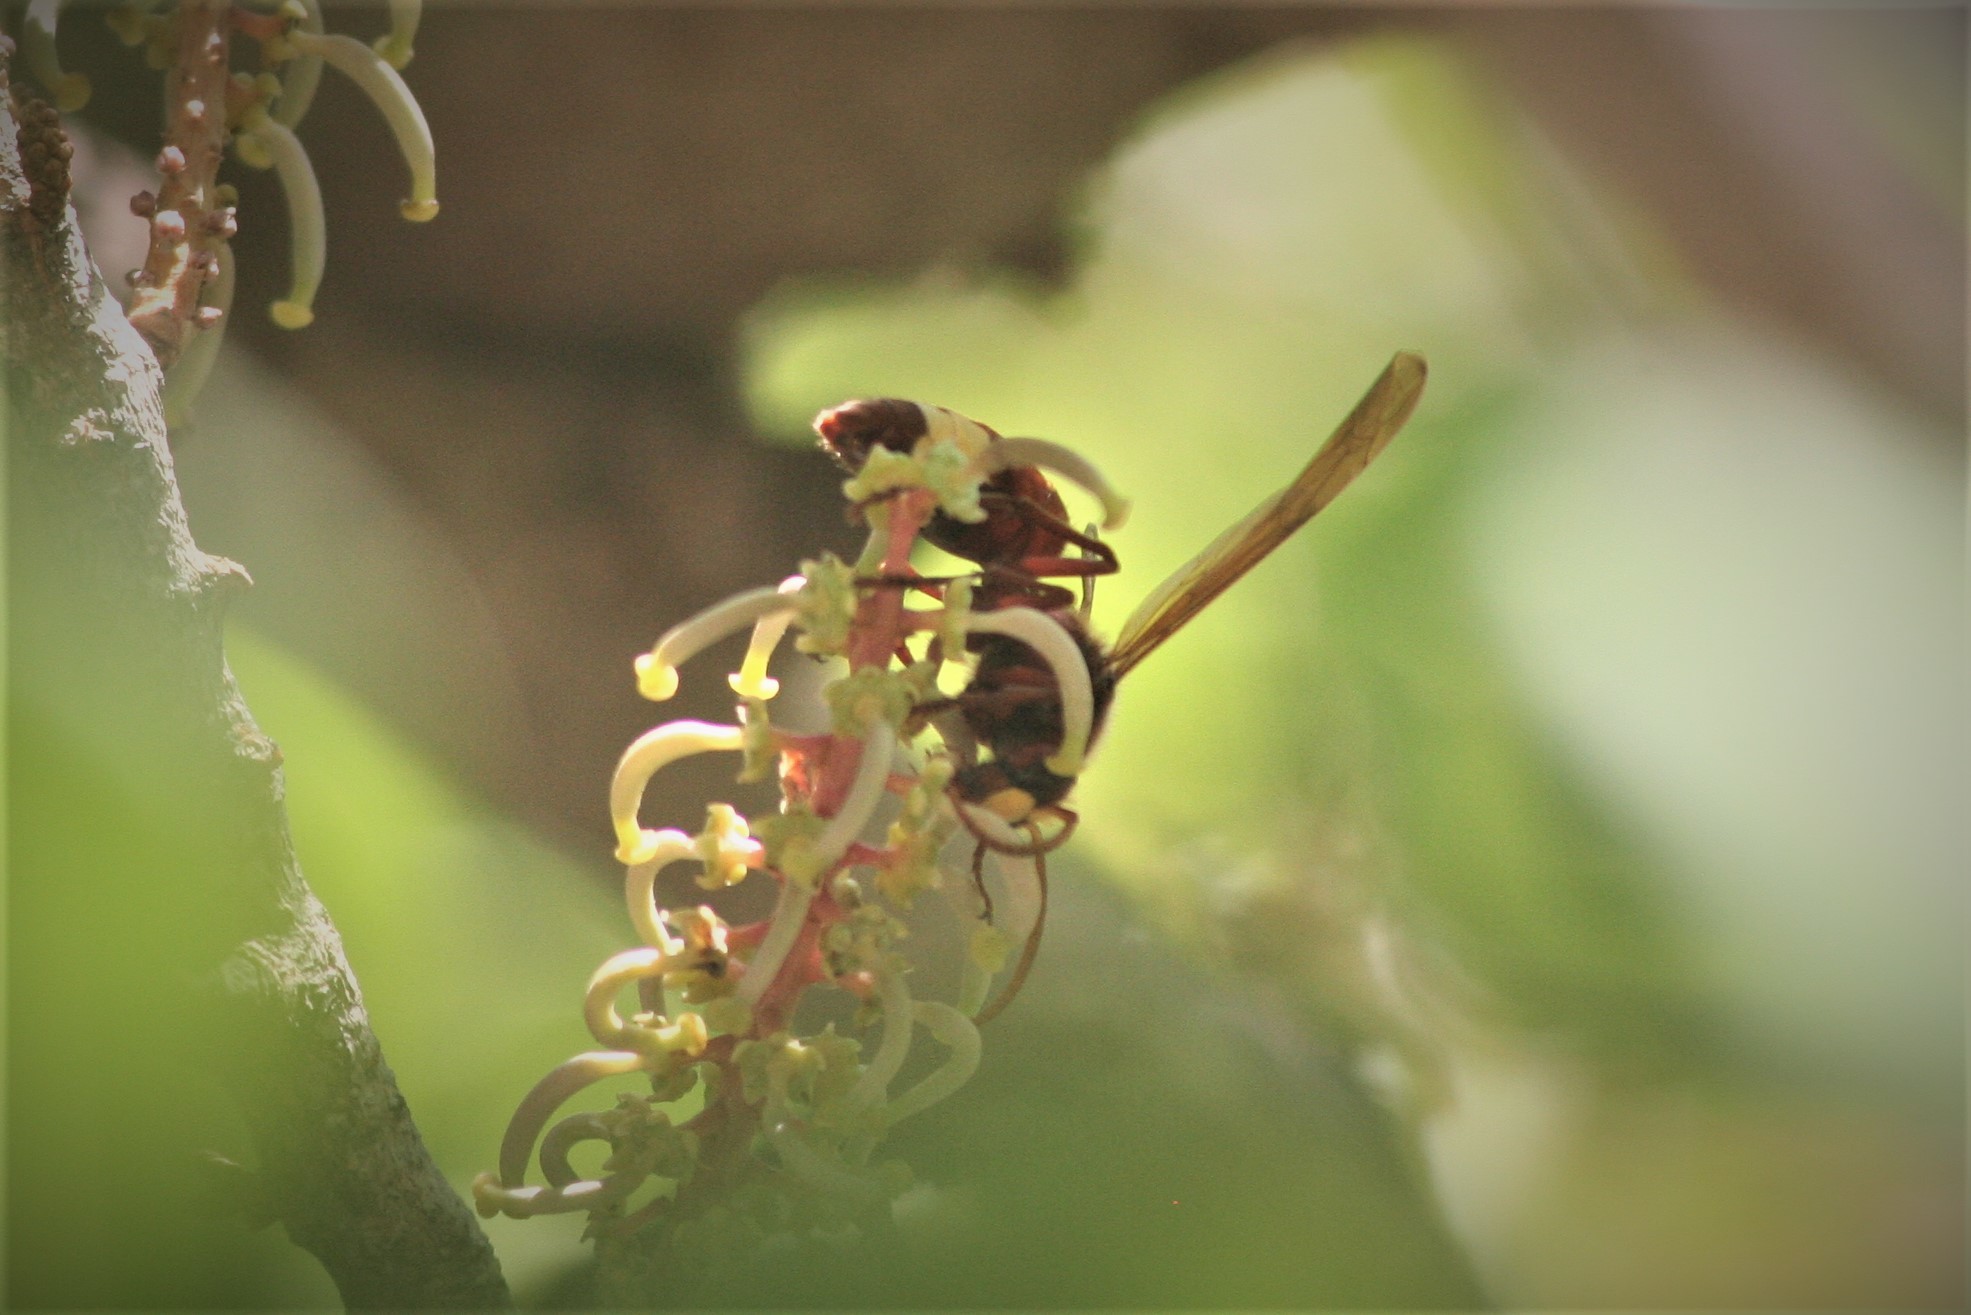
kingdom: Animalia
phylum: Arthropoda
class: Insecta
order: Hymenoptera
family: Vespidae
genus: Vespa
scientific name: Vespa orientalis
